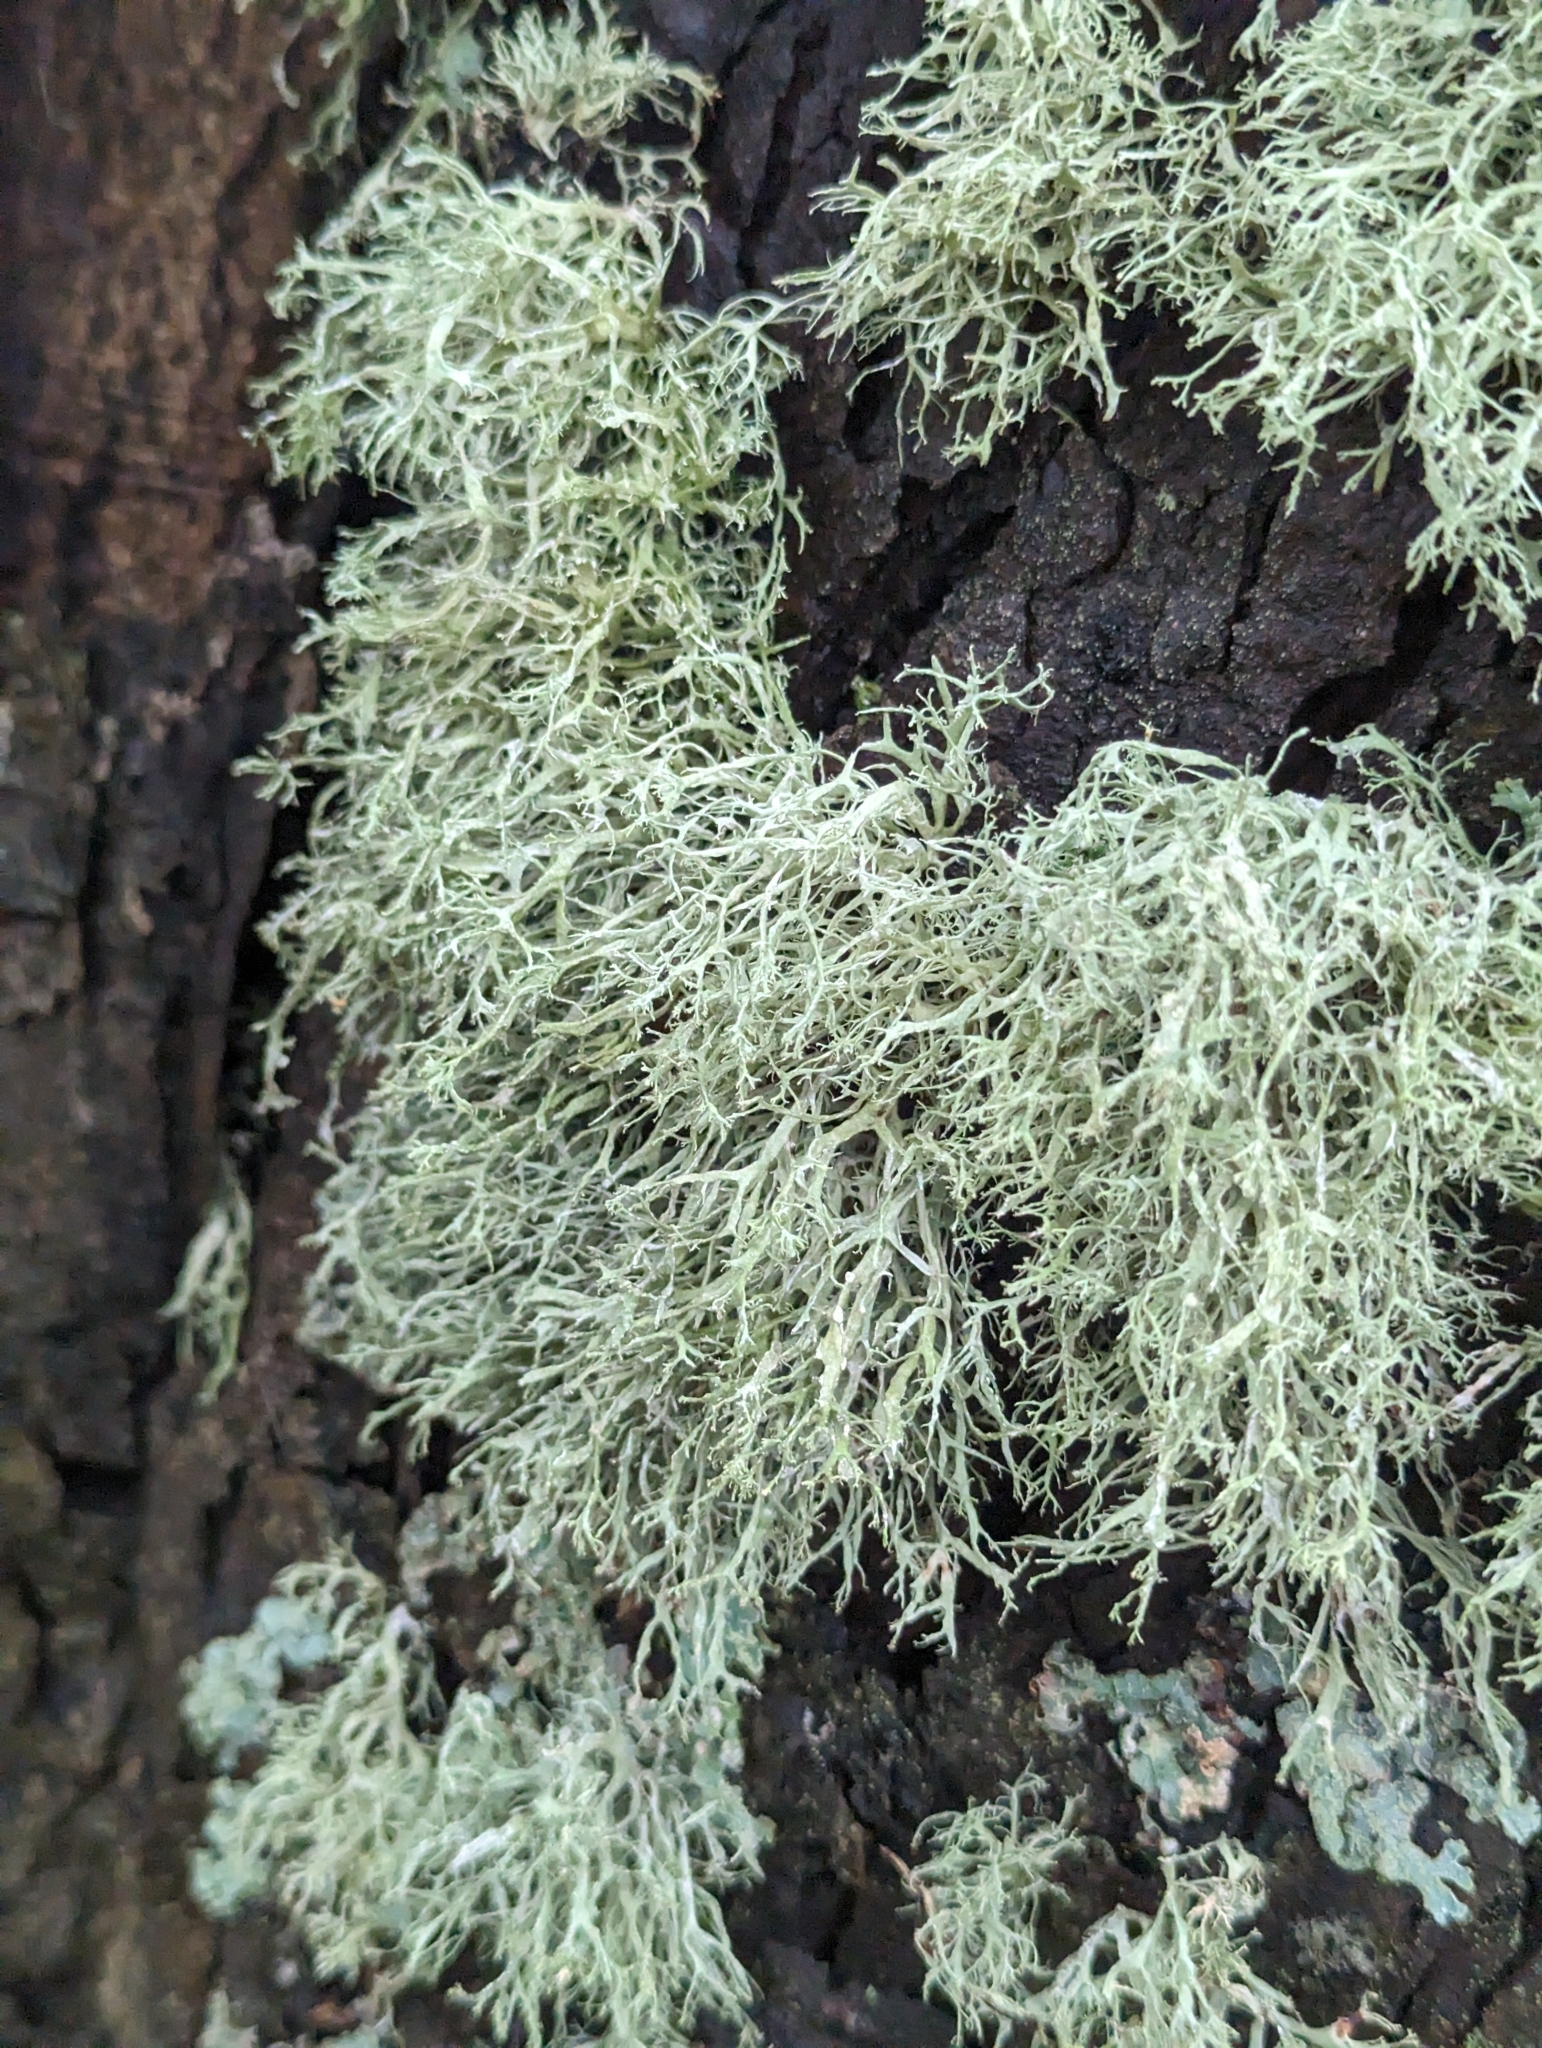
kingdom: Fungi
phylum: Ascomycota
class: Lecanoromycetes
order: Lecanorales
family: Ramalinaceae
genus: Ramalina
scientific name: Ramalina farinacea
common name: Farinose cartilage lichen
